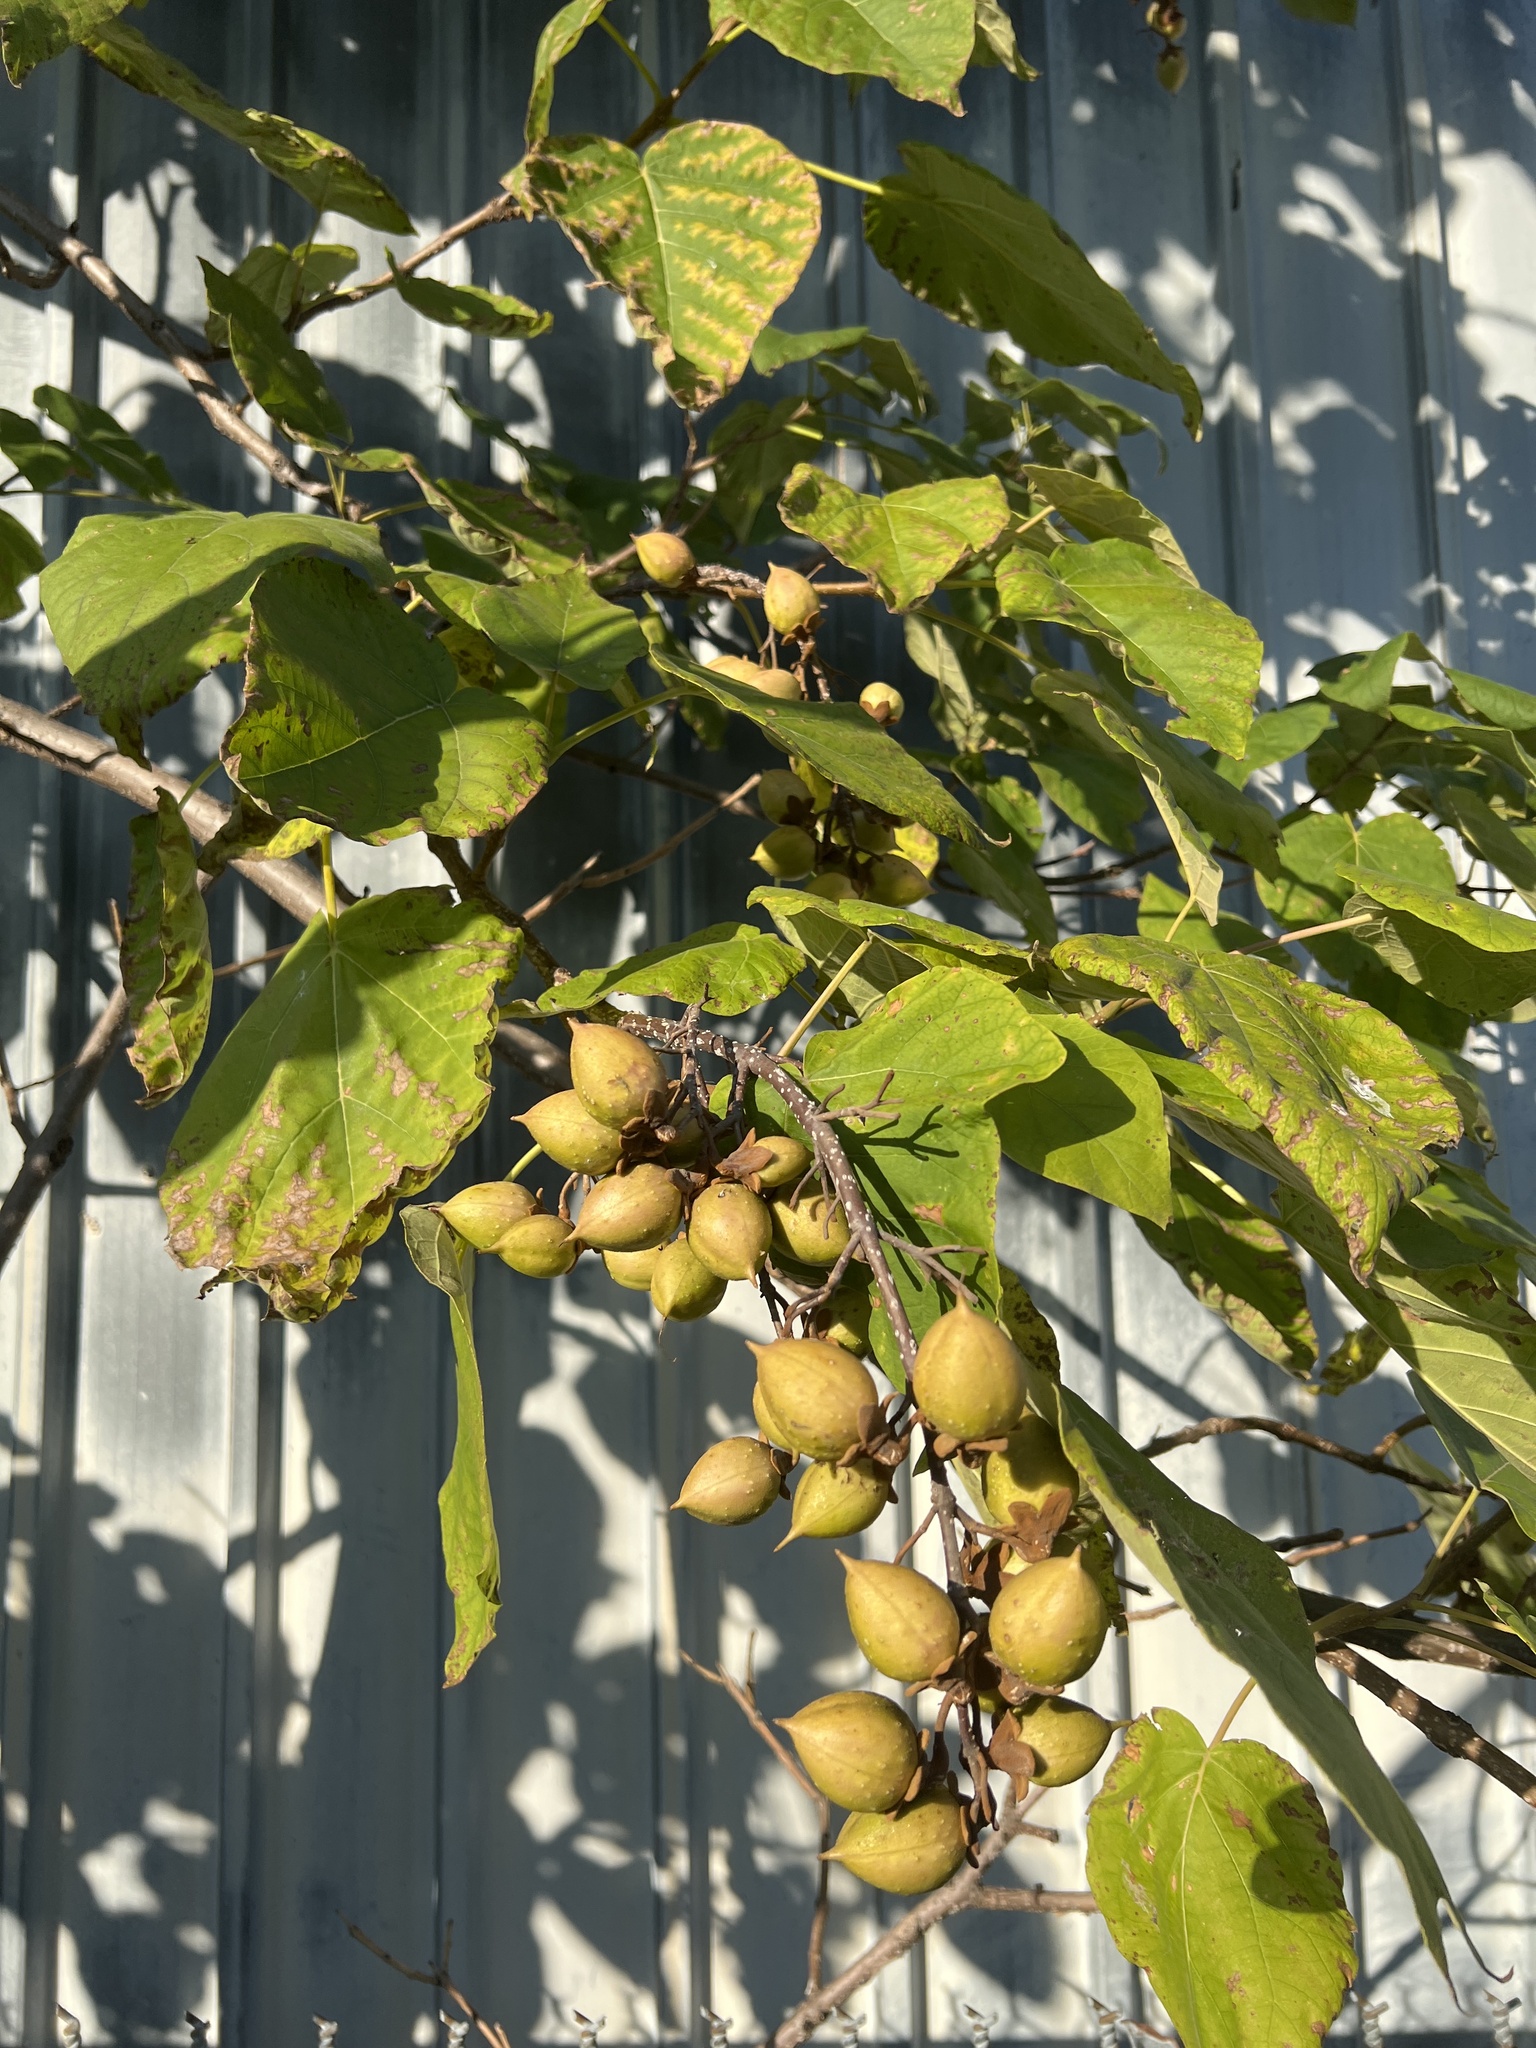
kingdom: Plantae
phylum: Tracheophyta
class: Magnoliopsida
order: Lamiales
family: Paulowniaceae
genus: Paulownia
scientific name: Paulownia tomentosa
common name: Foxglove-tree
